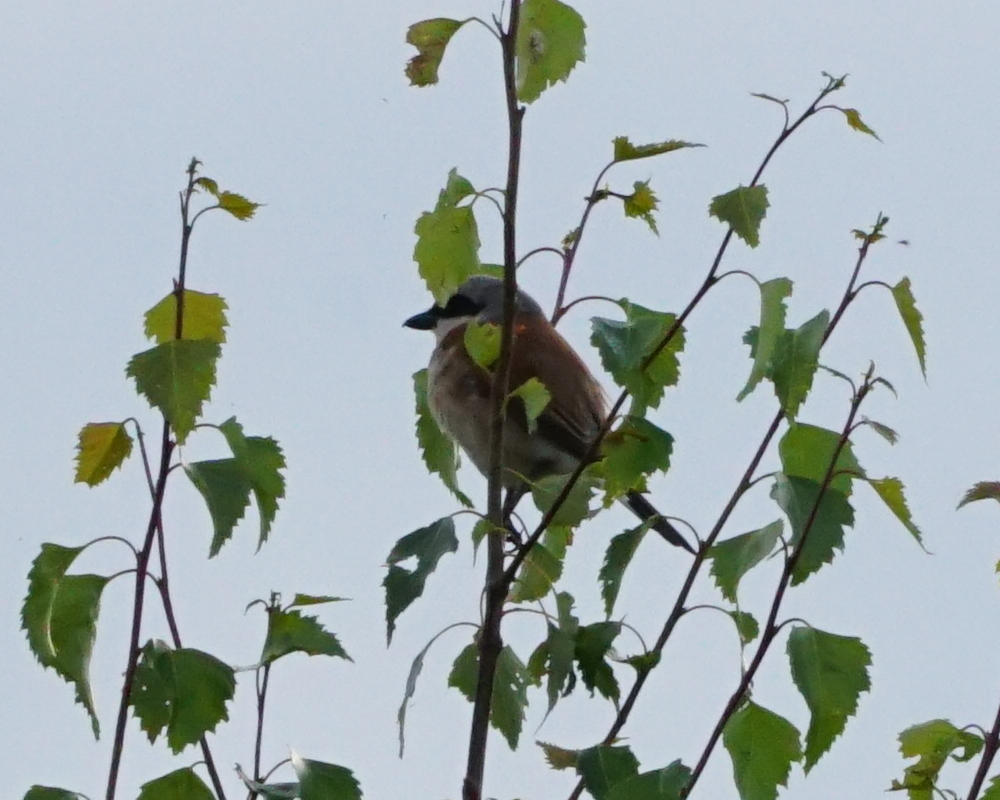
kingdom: Animalia
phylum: Chordata
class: Aves
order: Passeriformes
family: Laniidae
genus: Lanius
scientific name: Lanius collurio
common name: Red-backed shrike
